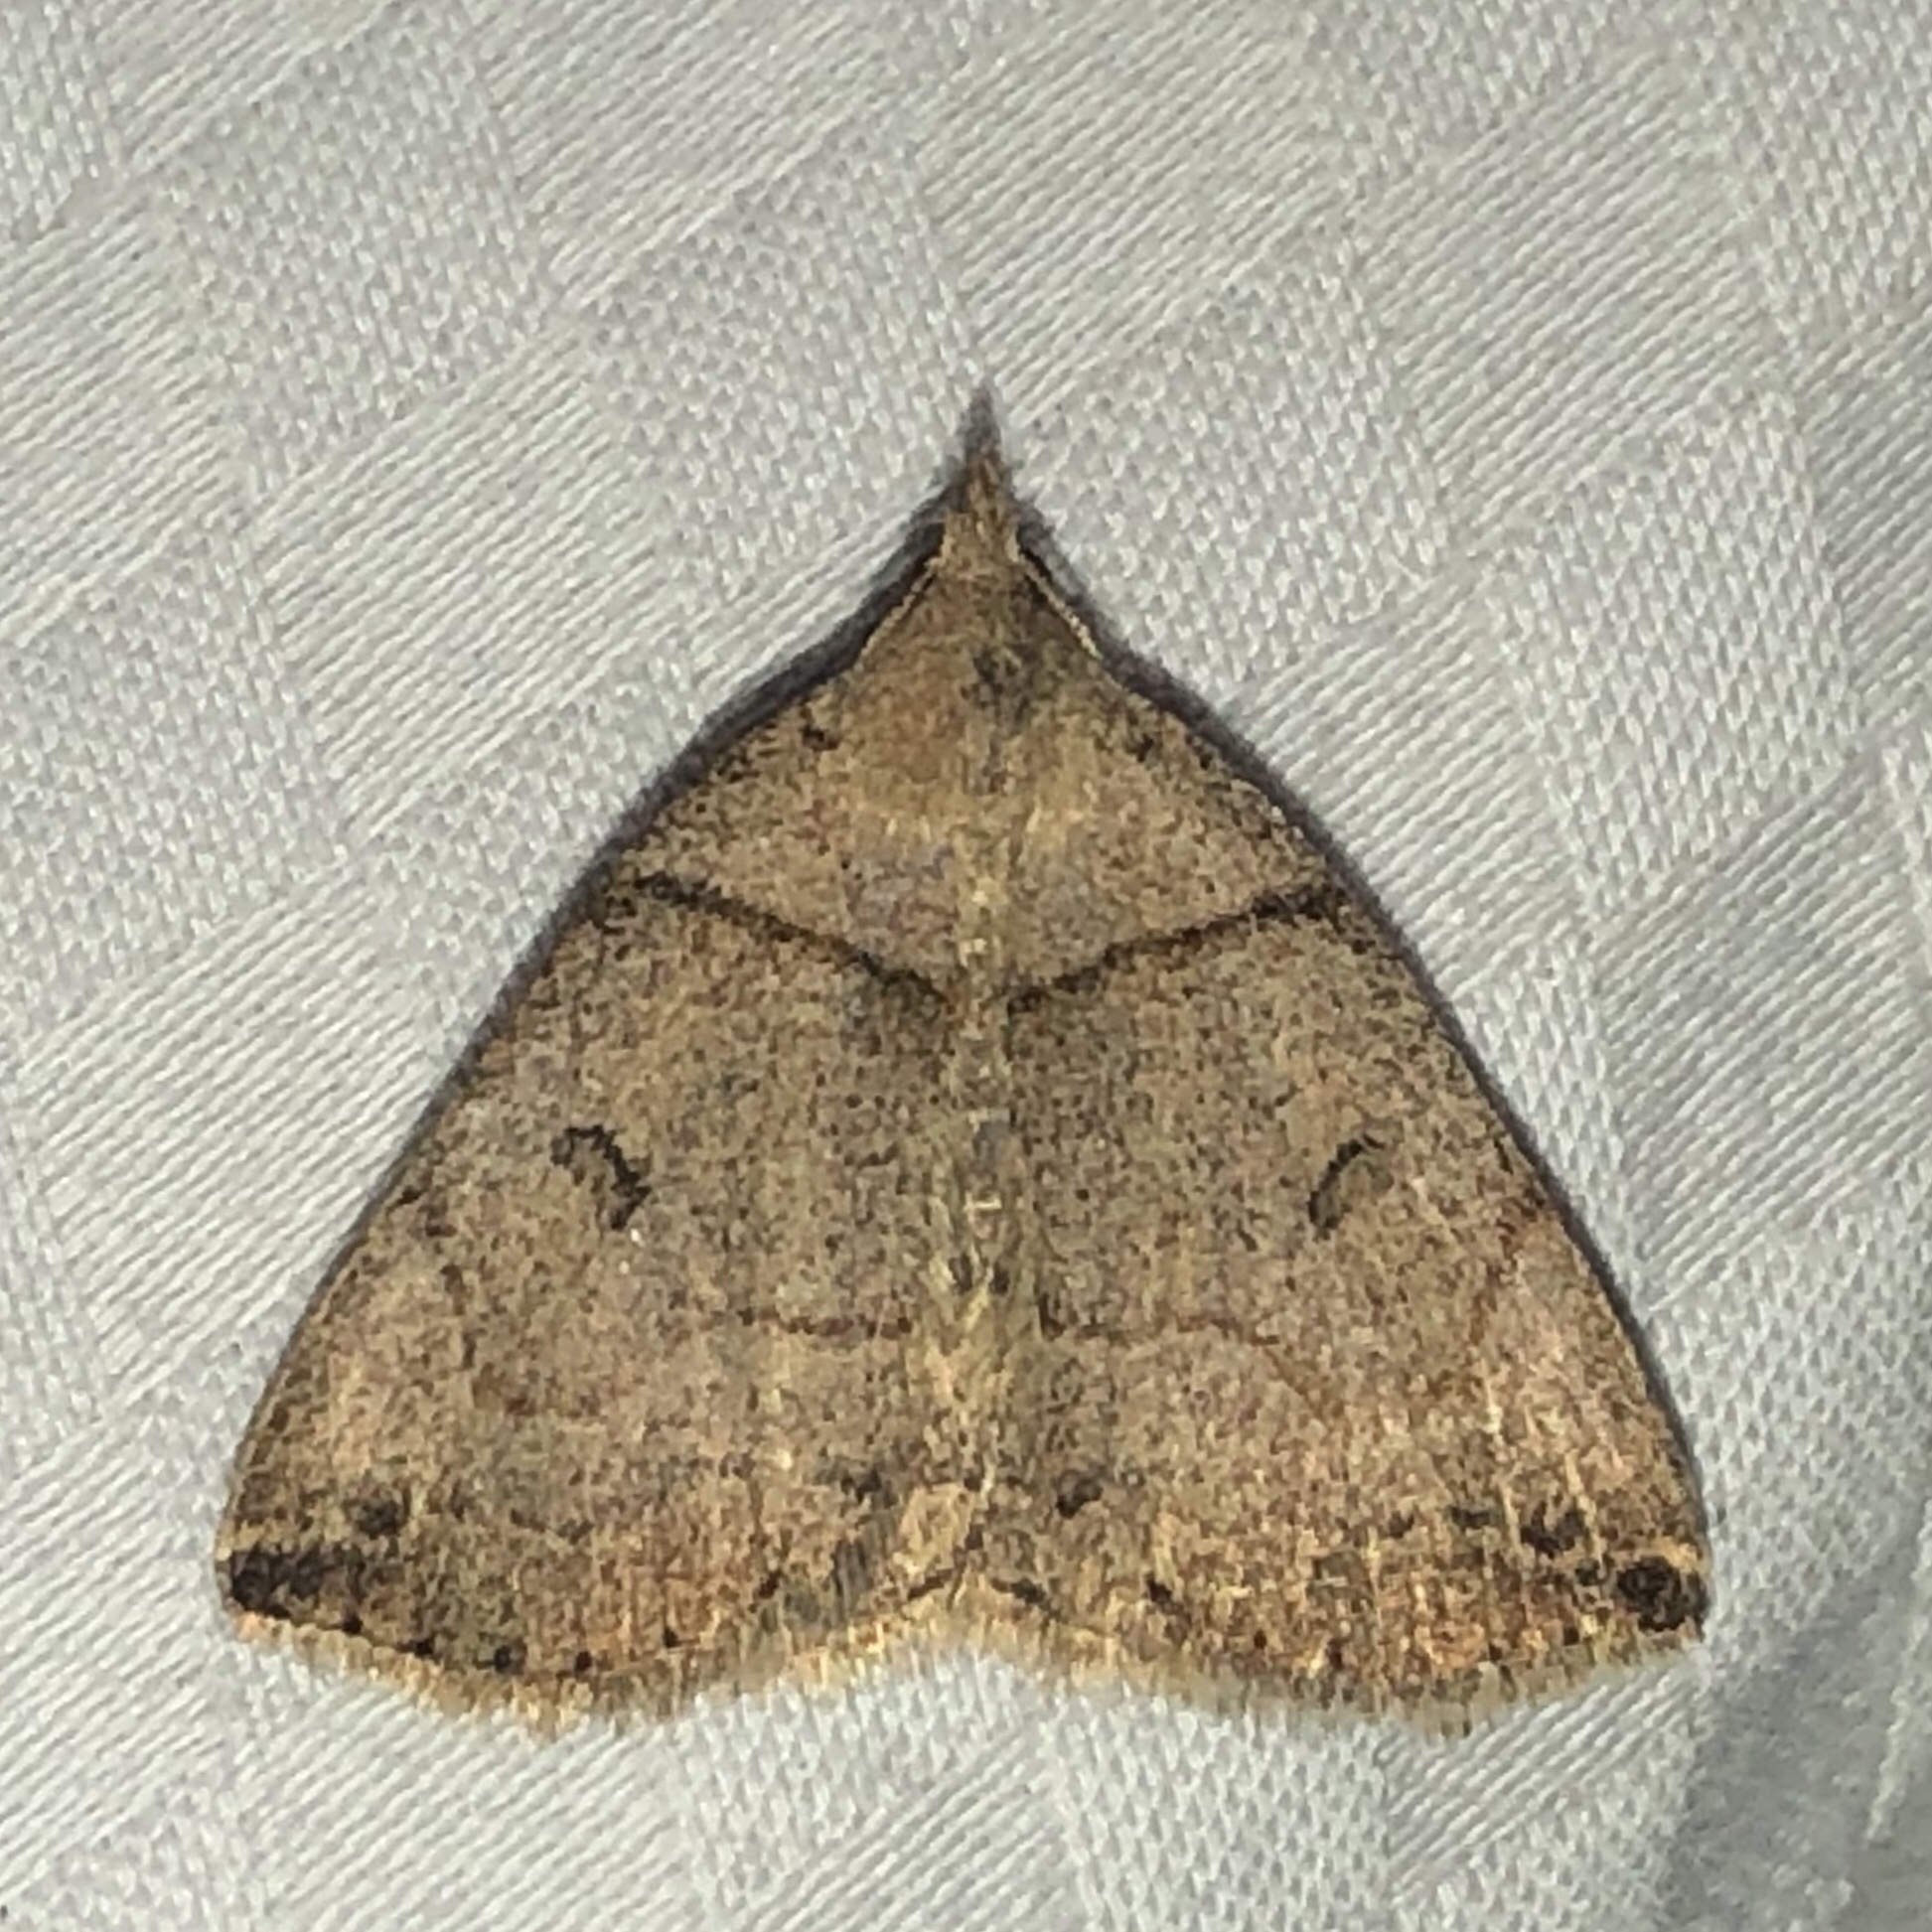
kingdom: Animalia
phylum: Arthropoda
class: Insecta
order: Lepidoptera
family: Erebidae
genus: Zanclognatha
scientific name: Zanclognatha laevigata
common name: Variable fan-foot
